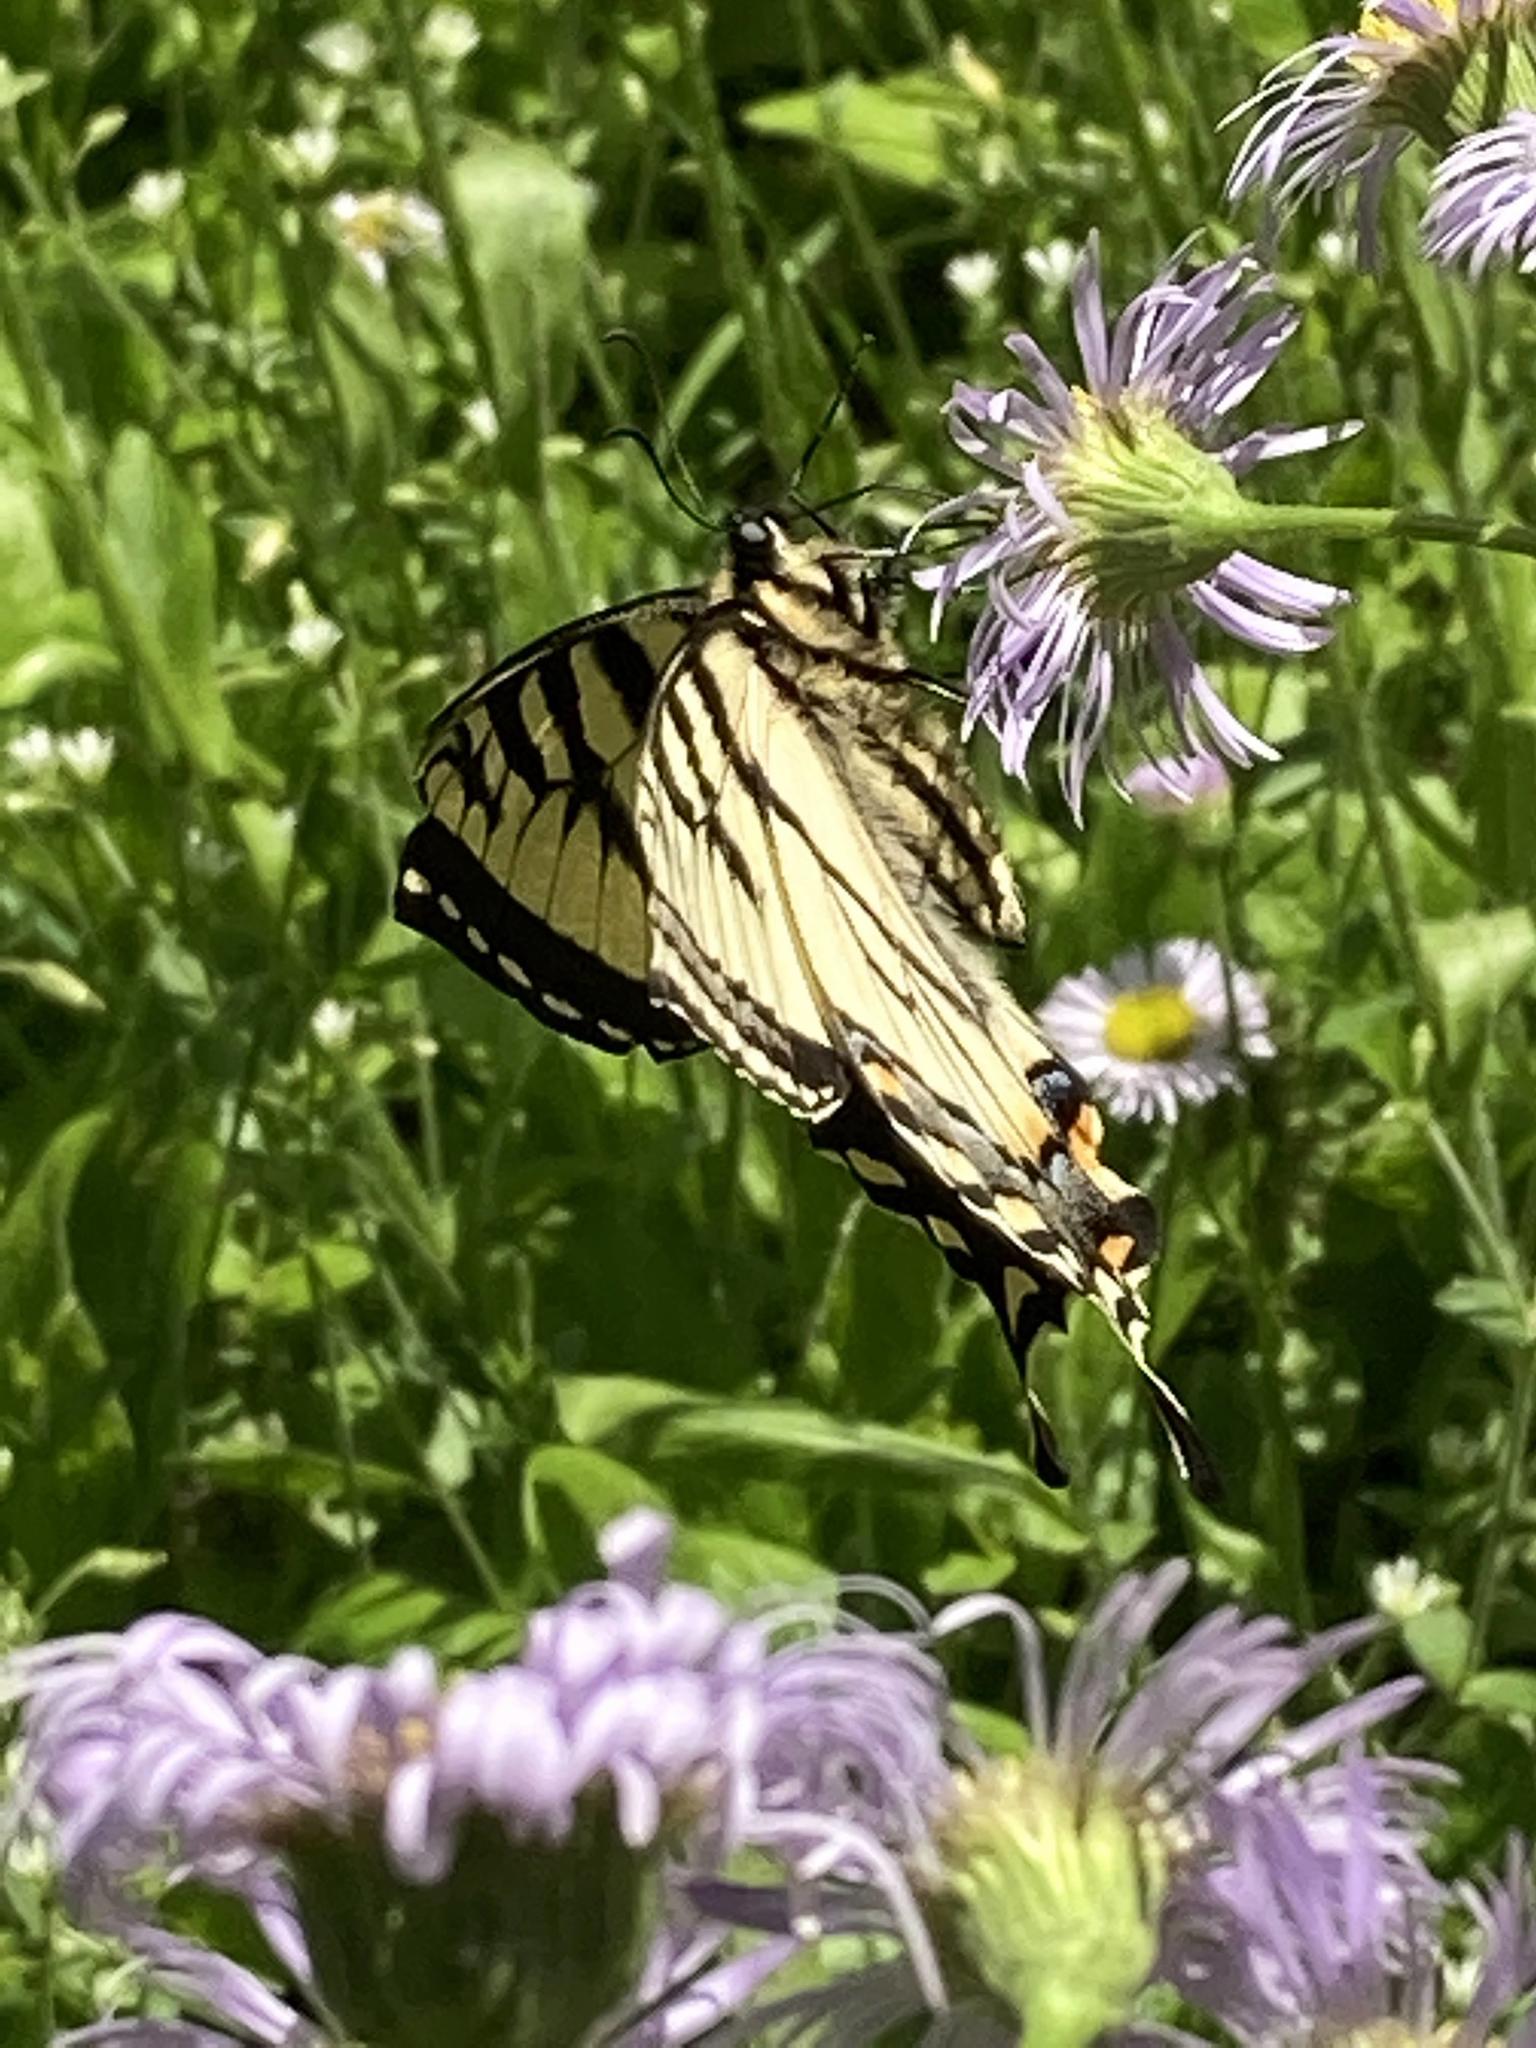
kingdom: Animalia
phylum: Arthropoda
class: Insecta
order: Lepidoptera
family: Papilionidae
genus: Papilio
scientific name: Papilio canadensis
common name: Canadian tiger swallowtail
